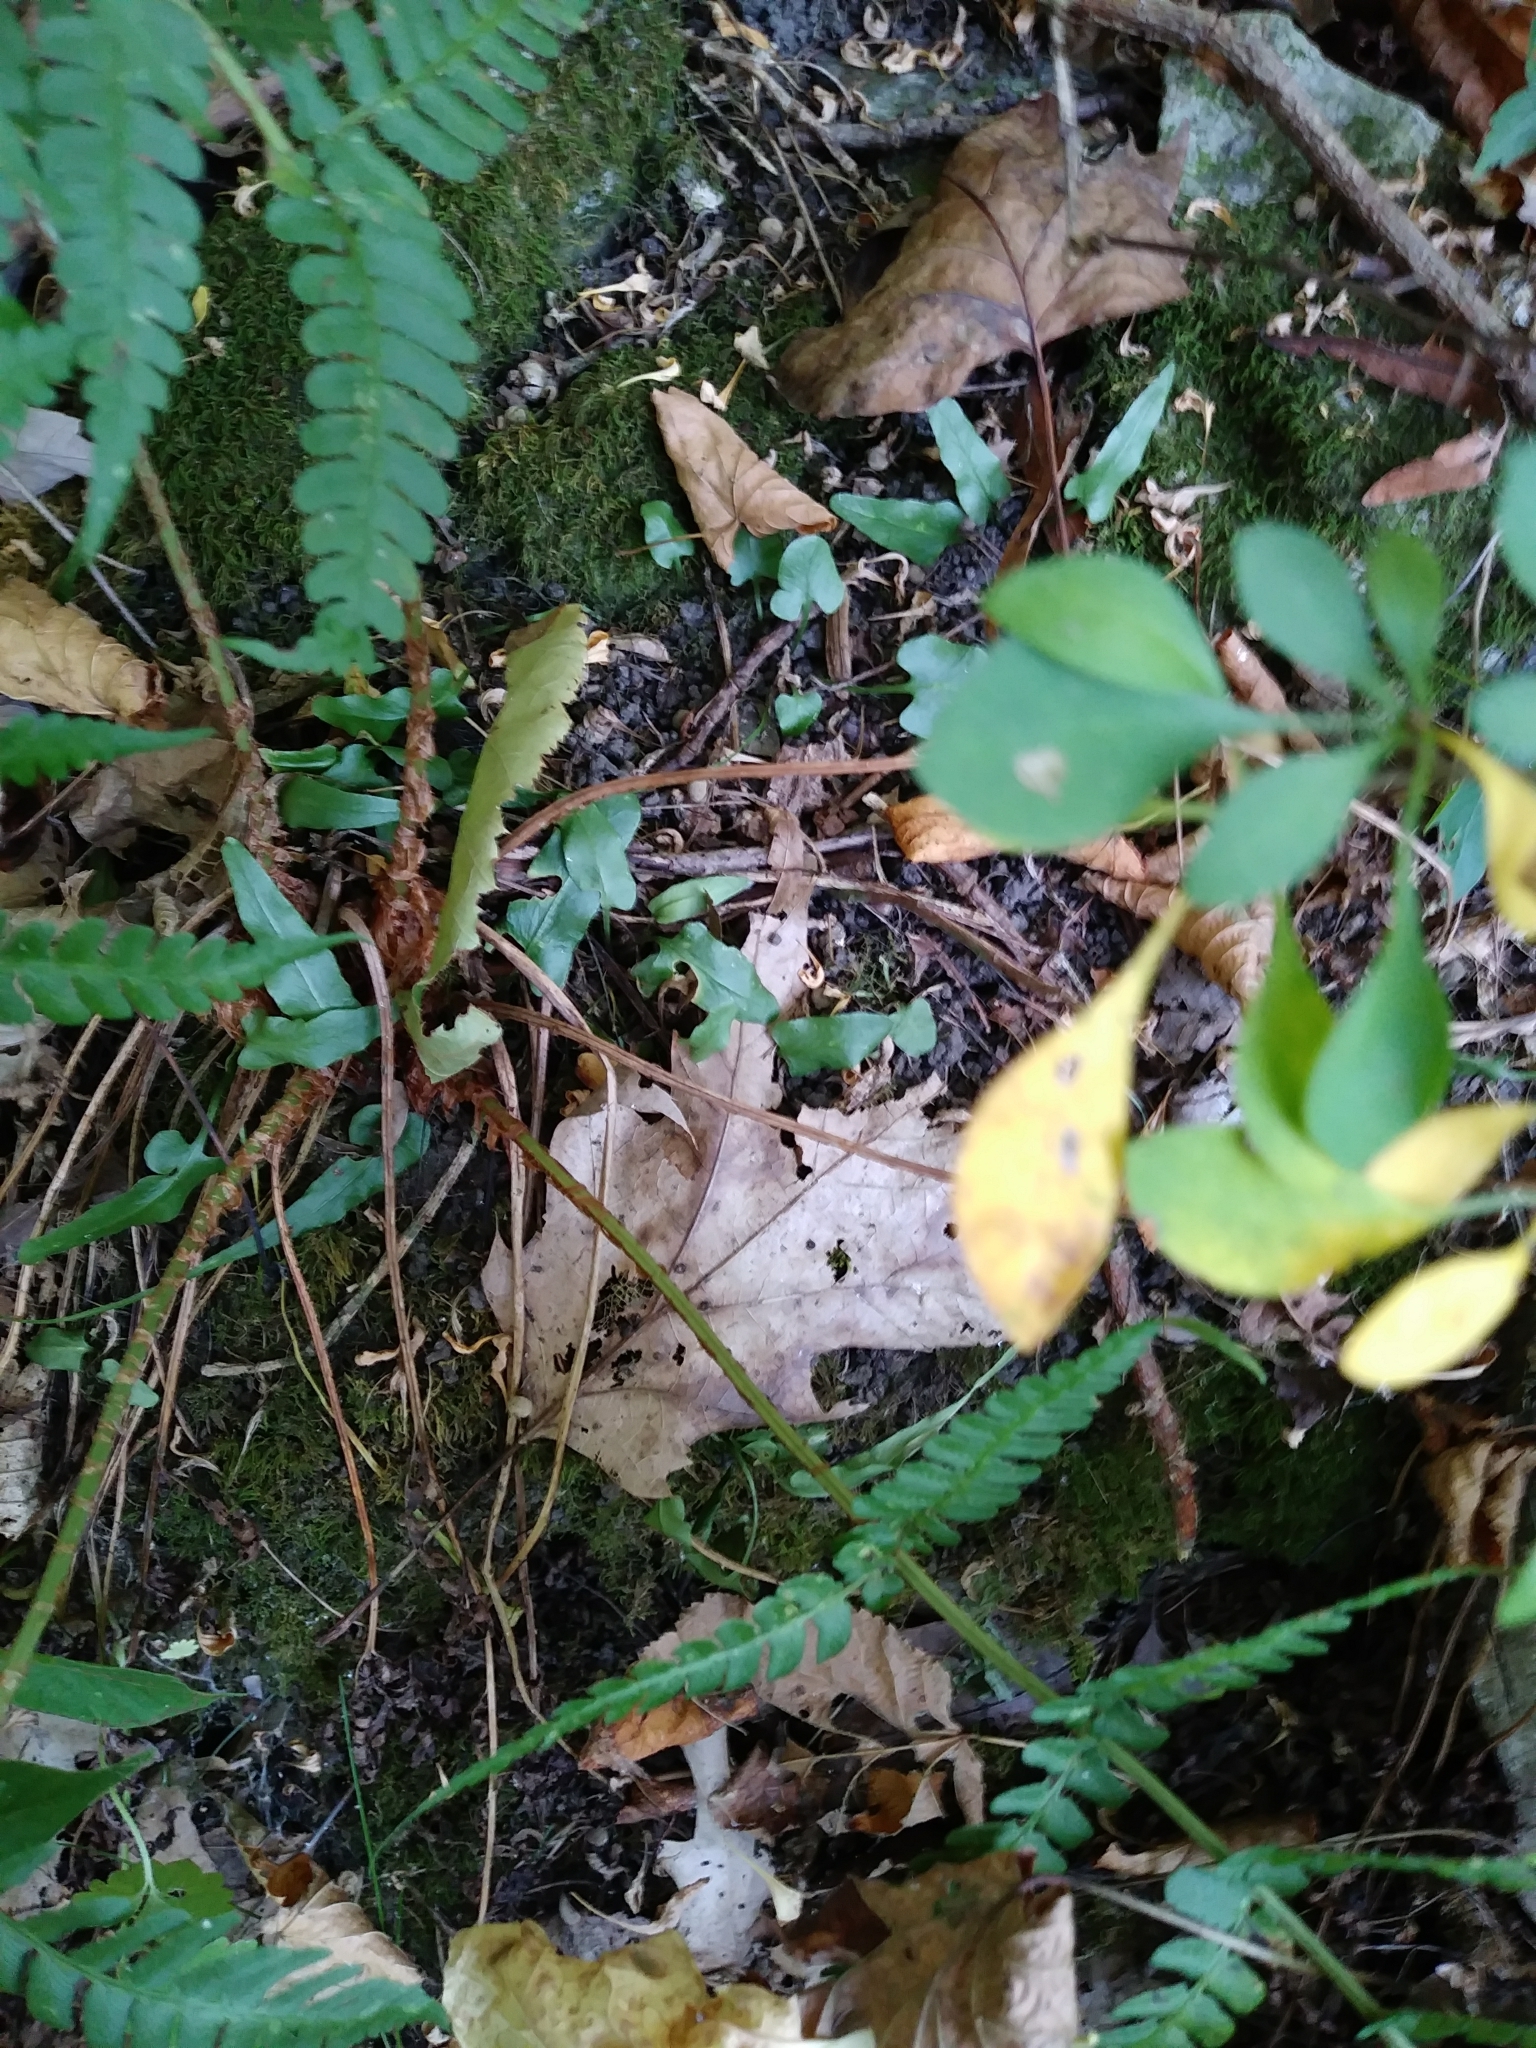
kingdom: Plantae
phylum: Tracheophyta
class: Polypodiopsida
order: Polypodiales
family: Aspleniaceae
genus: Asplenium
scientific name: Asplenium rhizophyllum
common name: Walking fern
